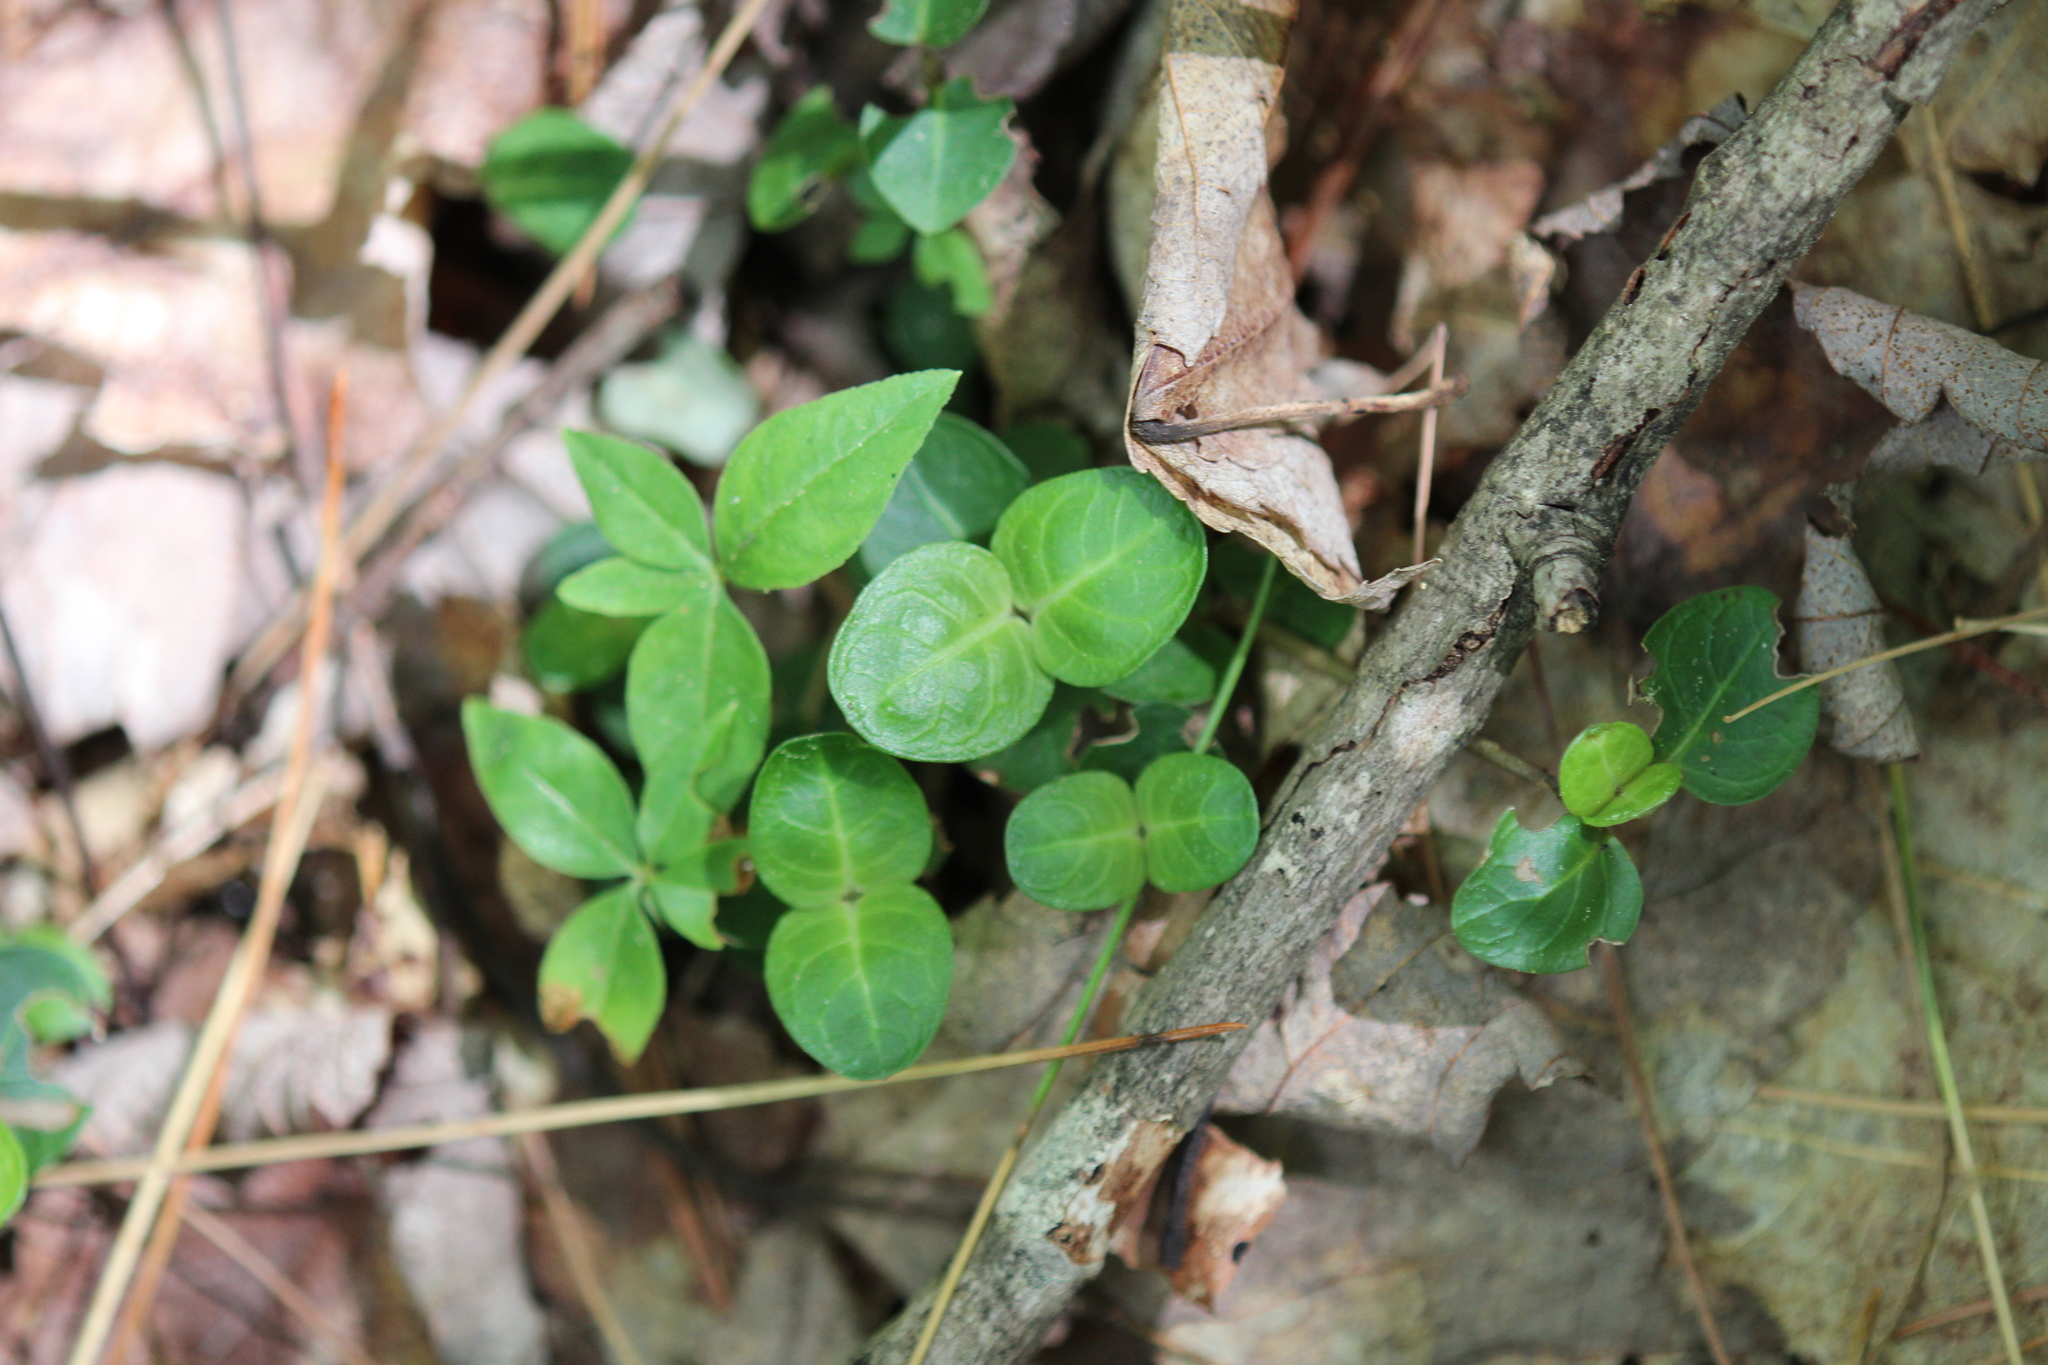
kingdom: Plantae
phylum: Tracheophyta
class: Magnoliopsida
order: Gentianales
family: Rubiaceae
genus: Mitchella
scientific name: Mitchella repens
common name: Partridge-berry
